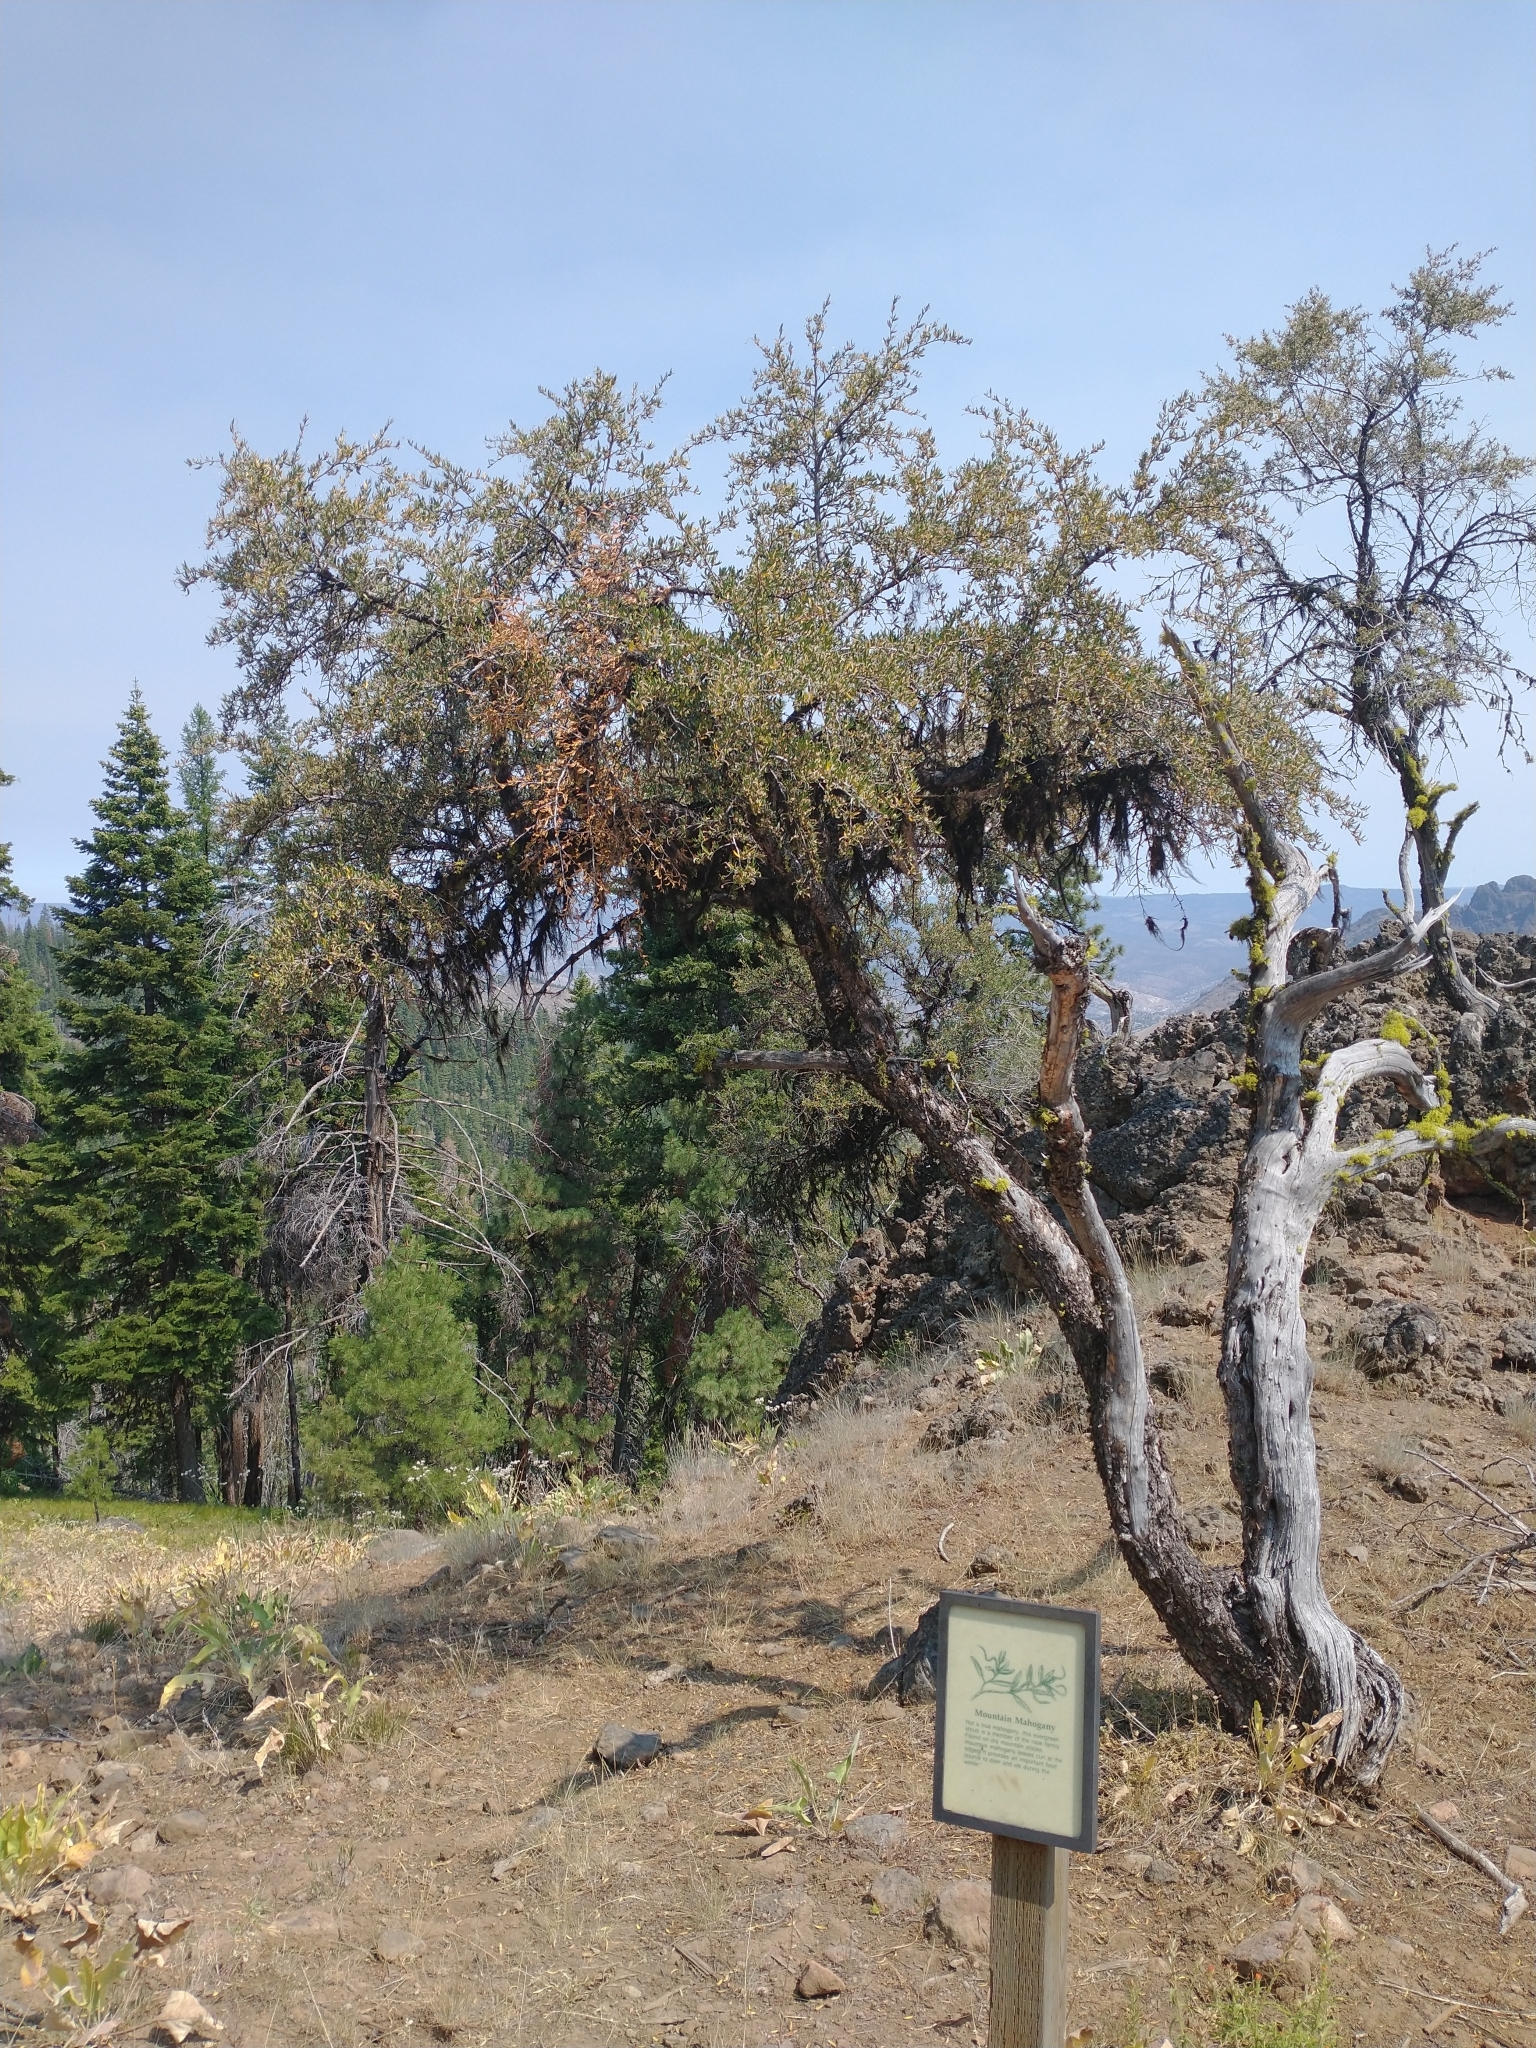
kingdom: Plantae
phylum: Tracheophyta
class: Magnoliopsida
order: Rosales
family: Rosaceae
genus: Cercocarpus
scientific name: Cercocarpus ledifolius
